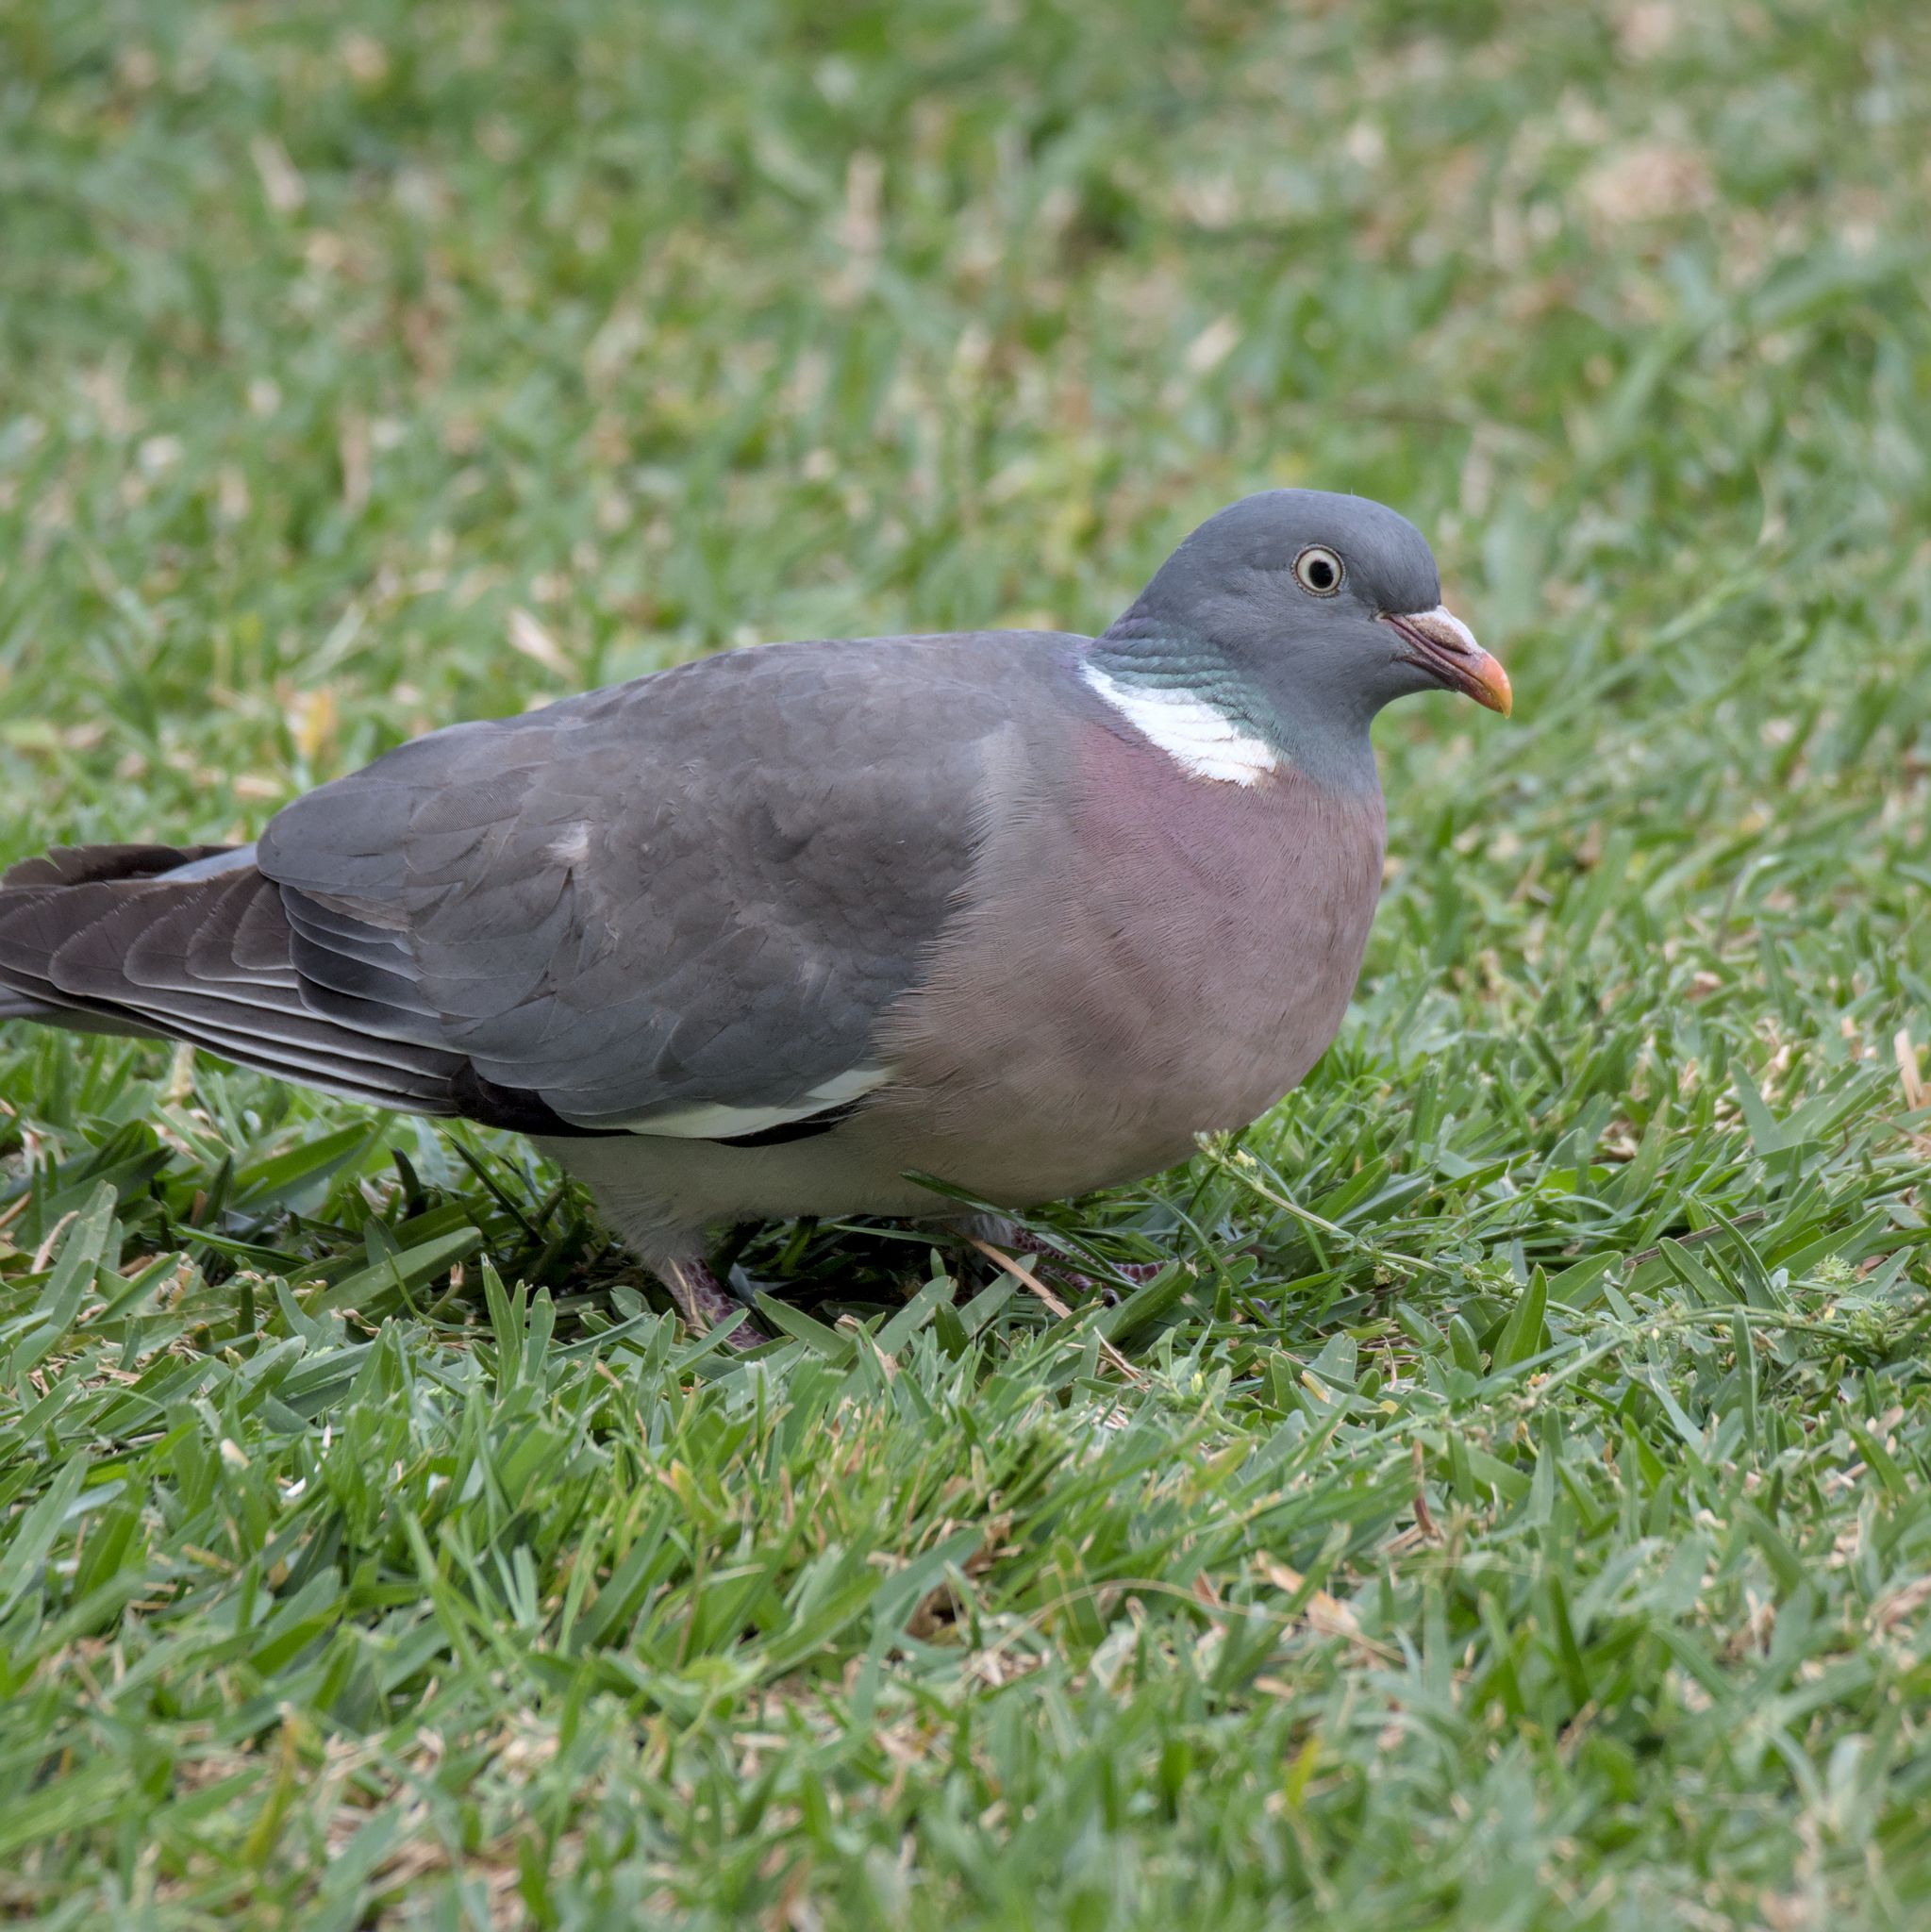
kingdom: Animalia
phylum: Chordata
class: Aves
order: Columbiformes
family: Columbidae
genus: Columba
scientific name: Columba palumbus
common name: Common wood pigeon
